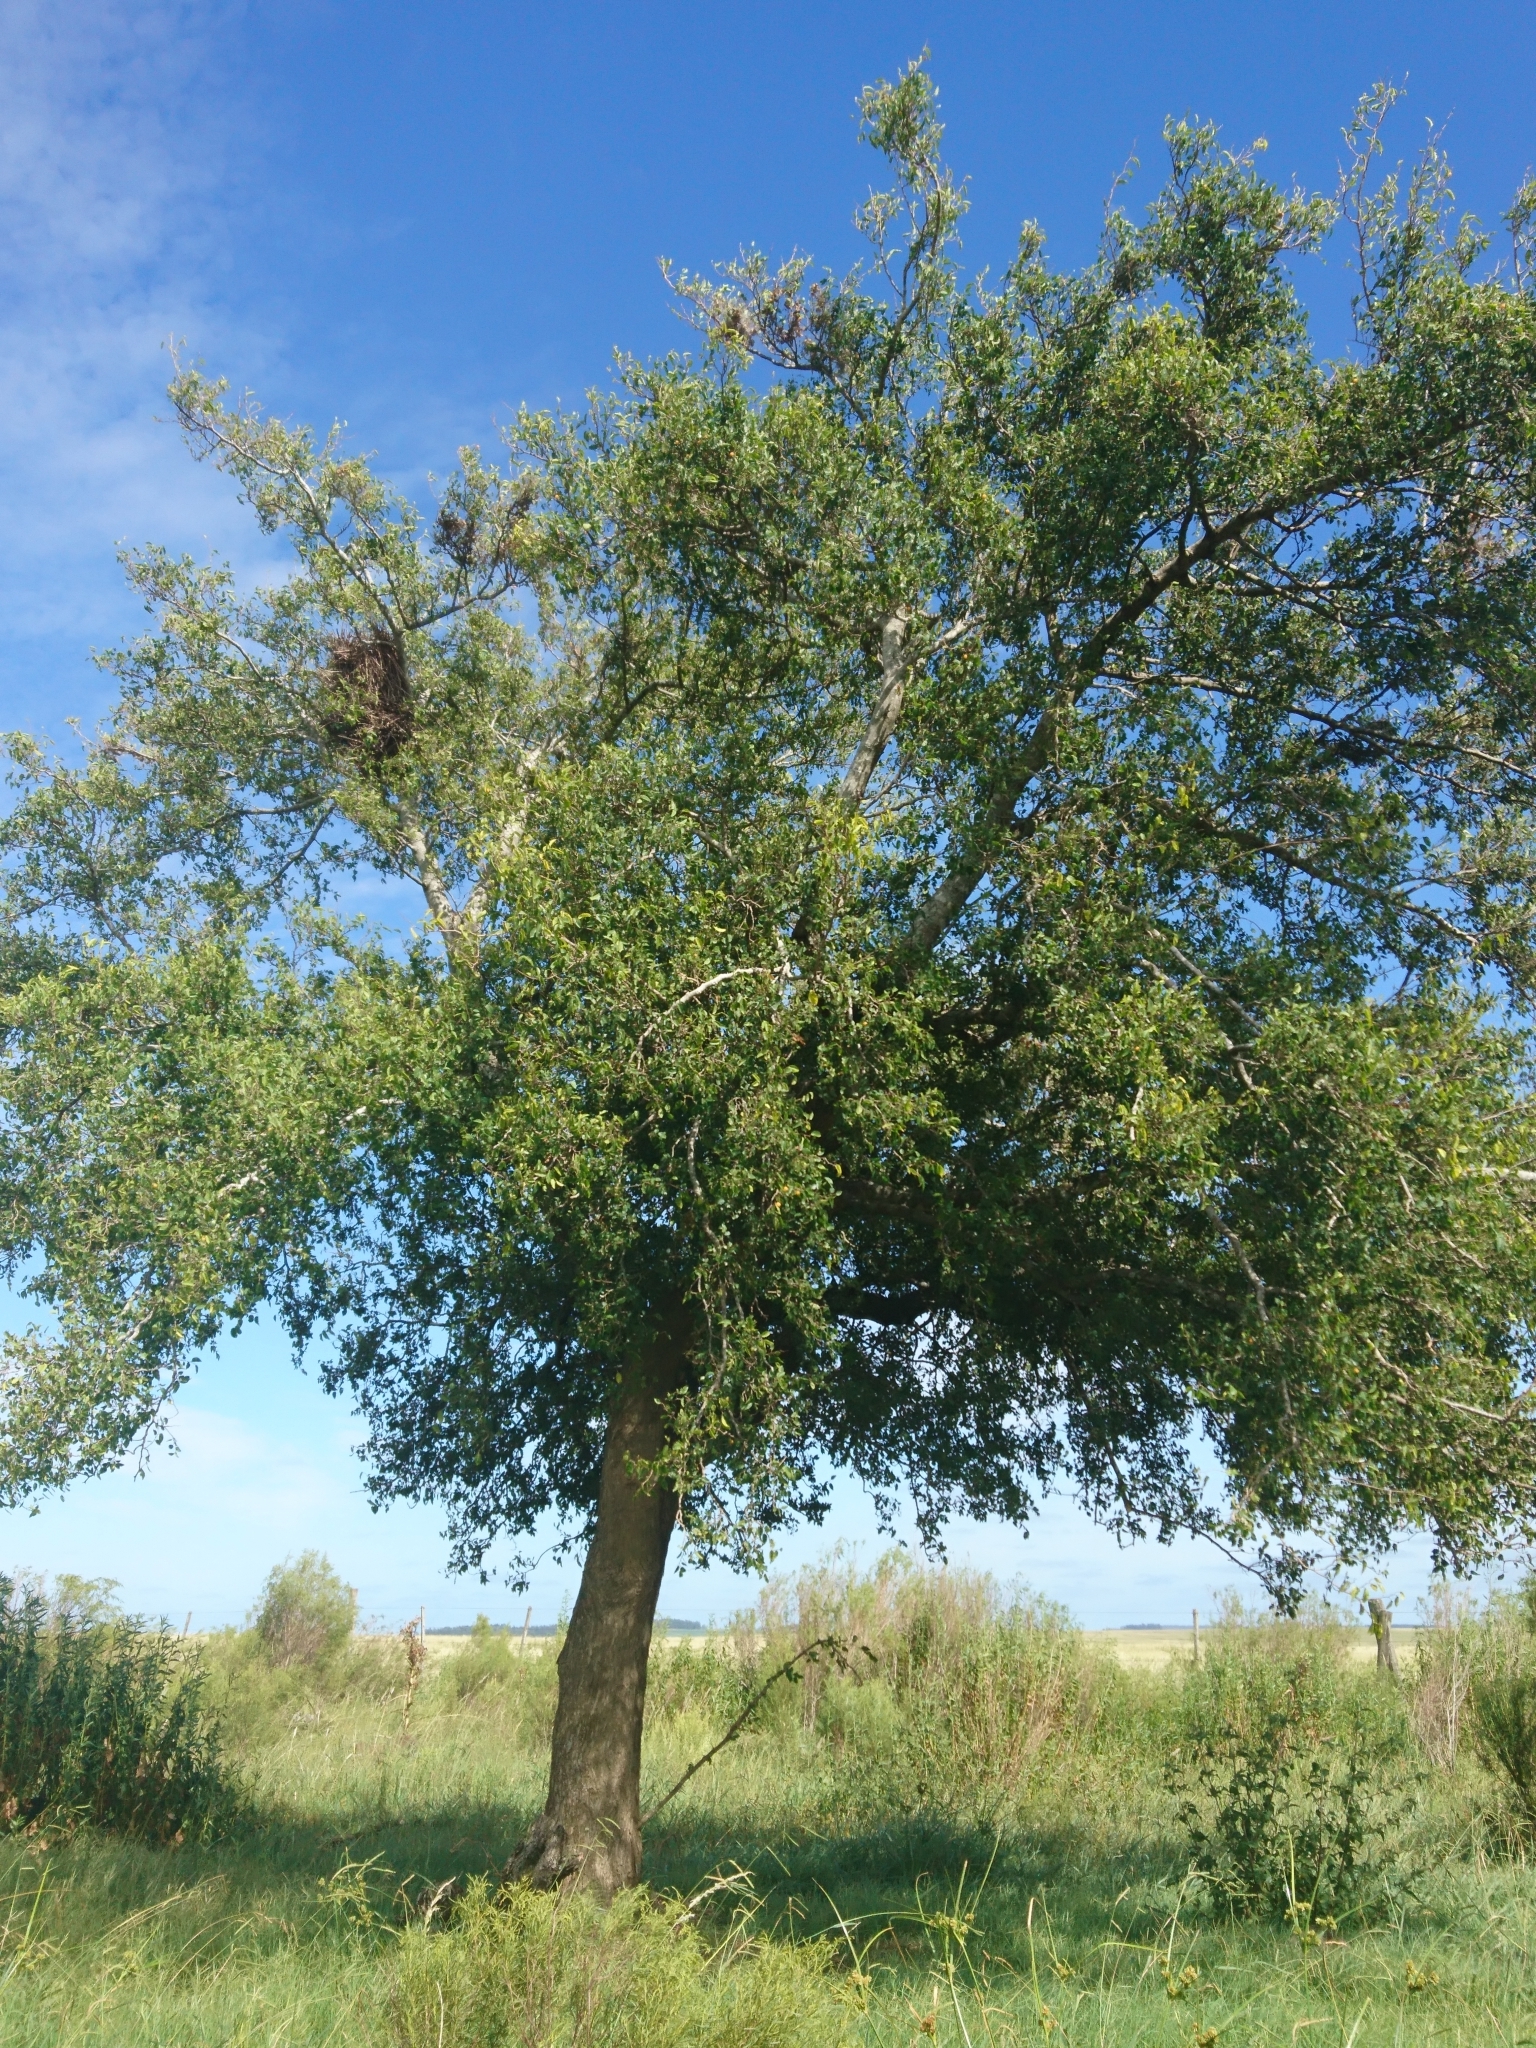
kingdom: Plantae
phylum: Tracheophyta
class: Magnoliopsida
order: Rosales
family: Cannabaceae
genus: Celtis
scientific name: Celtis tala
